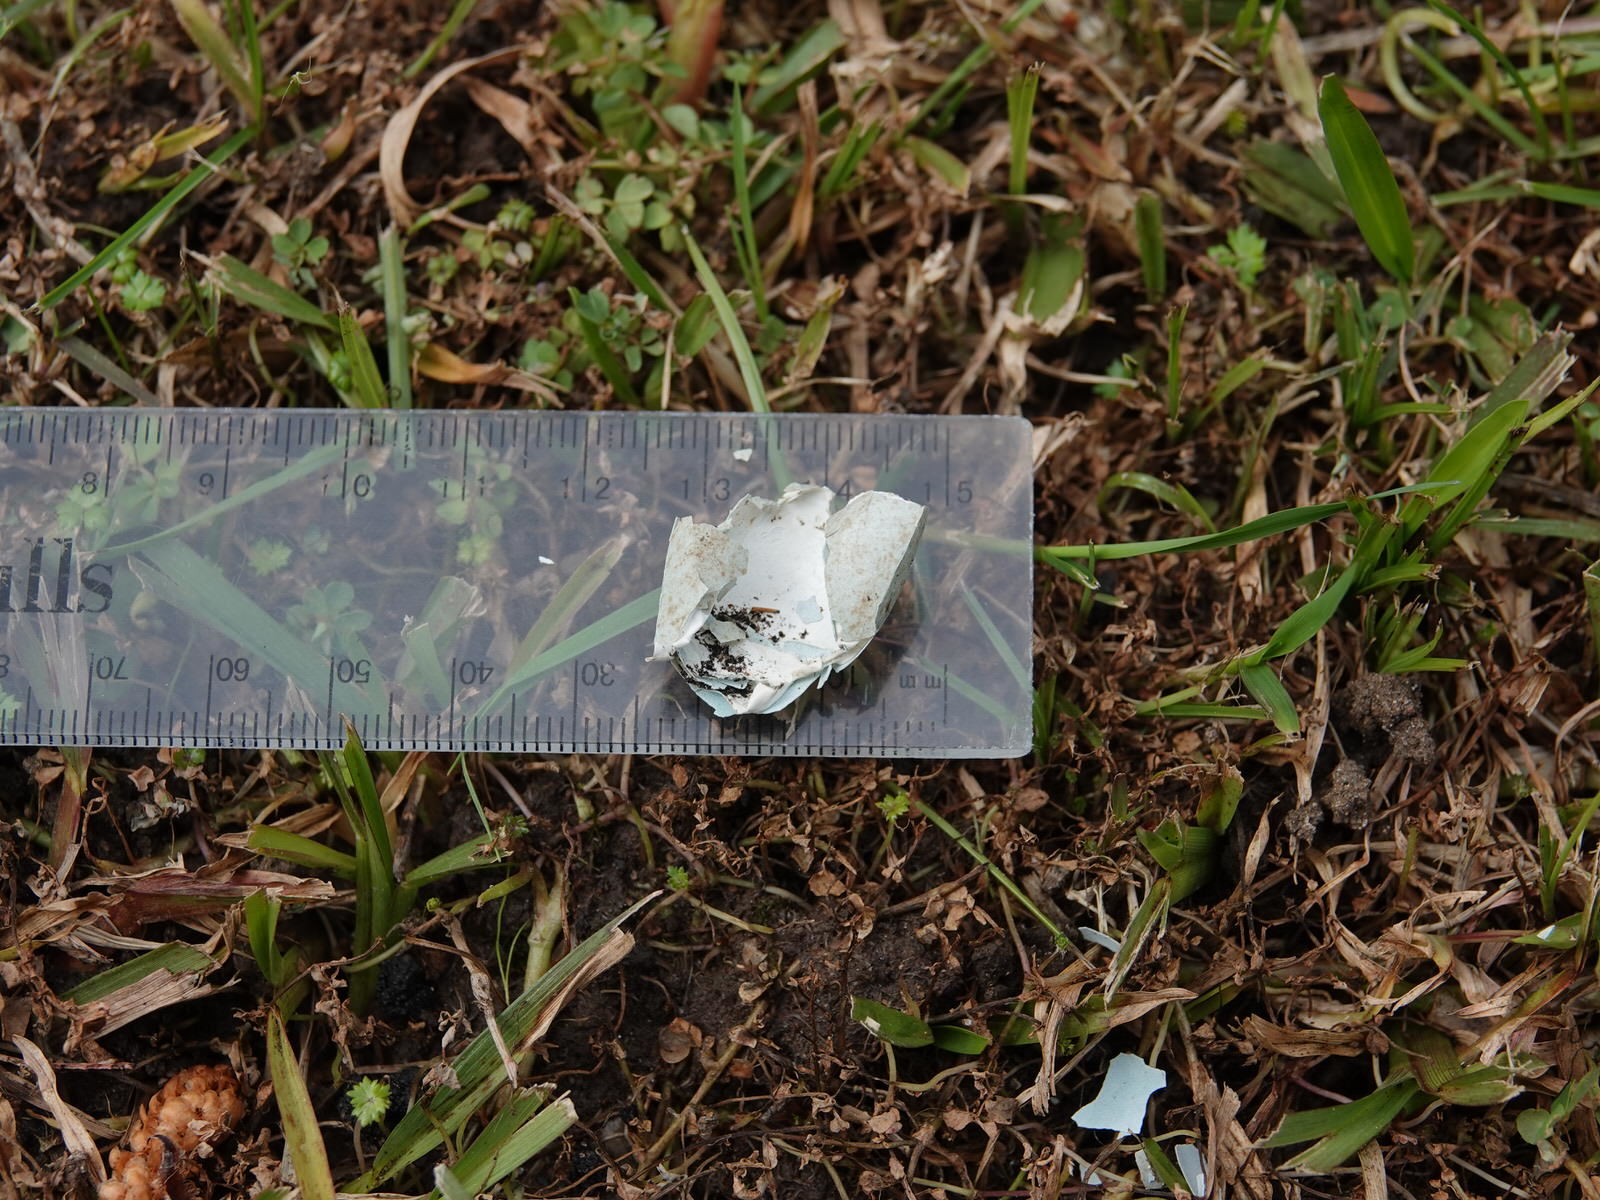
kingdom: Animalia
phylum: Chordata
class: Aves
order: Passeriformes
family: Turdidae
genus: Turdus
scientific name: Turdus merula
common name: Common blackbird
